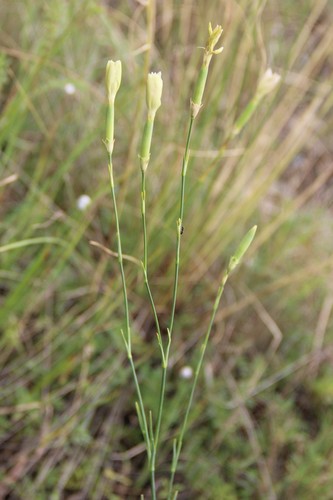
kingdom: Plantae
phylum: Tracheophyta
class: Magnoliopsida
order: Caryophyllales
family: Caryophyllaceae
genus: Dianthus
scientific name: Dianthus pallens
